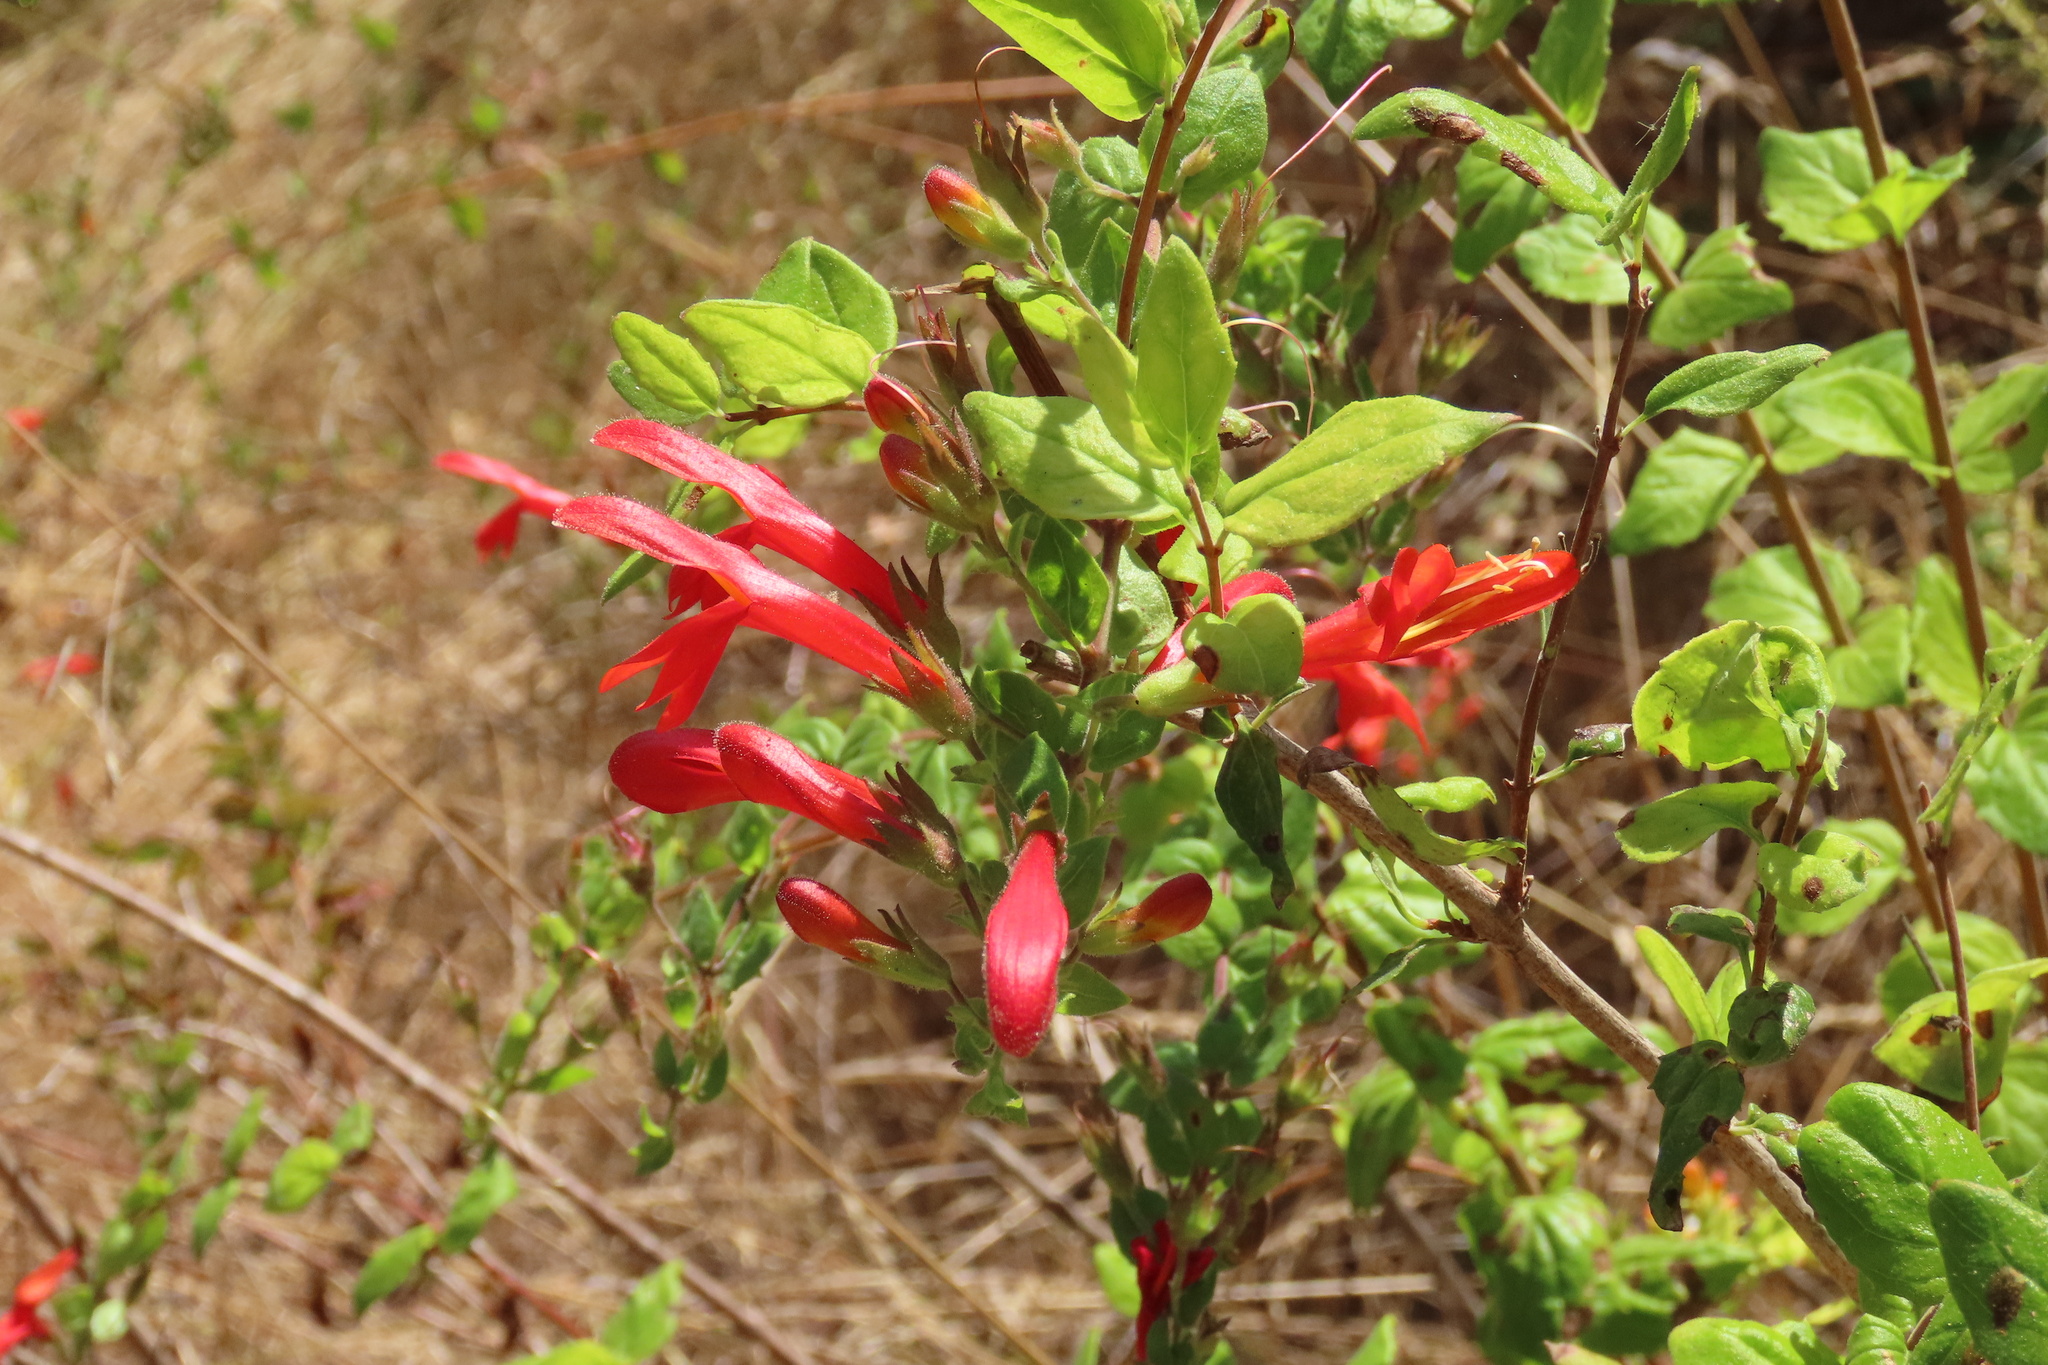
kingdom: Plantae
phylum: Tracheophyta
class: Magnoliopsida
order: Lamiales
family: Plantaginaceae
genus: Keckiella
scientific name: Keckiella cordifolia
